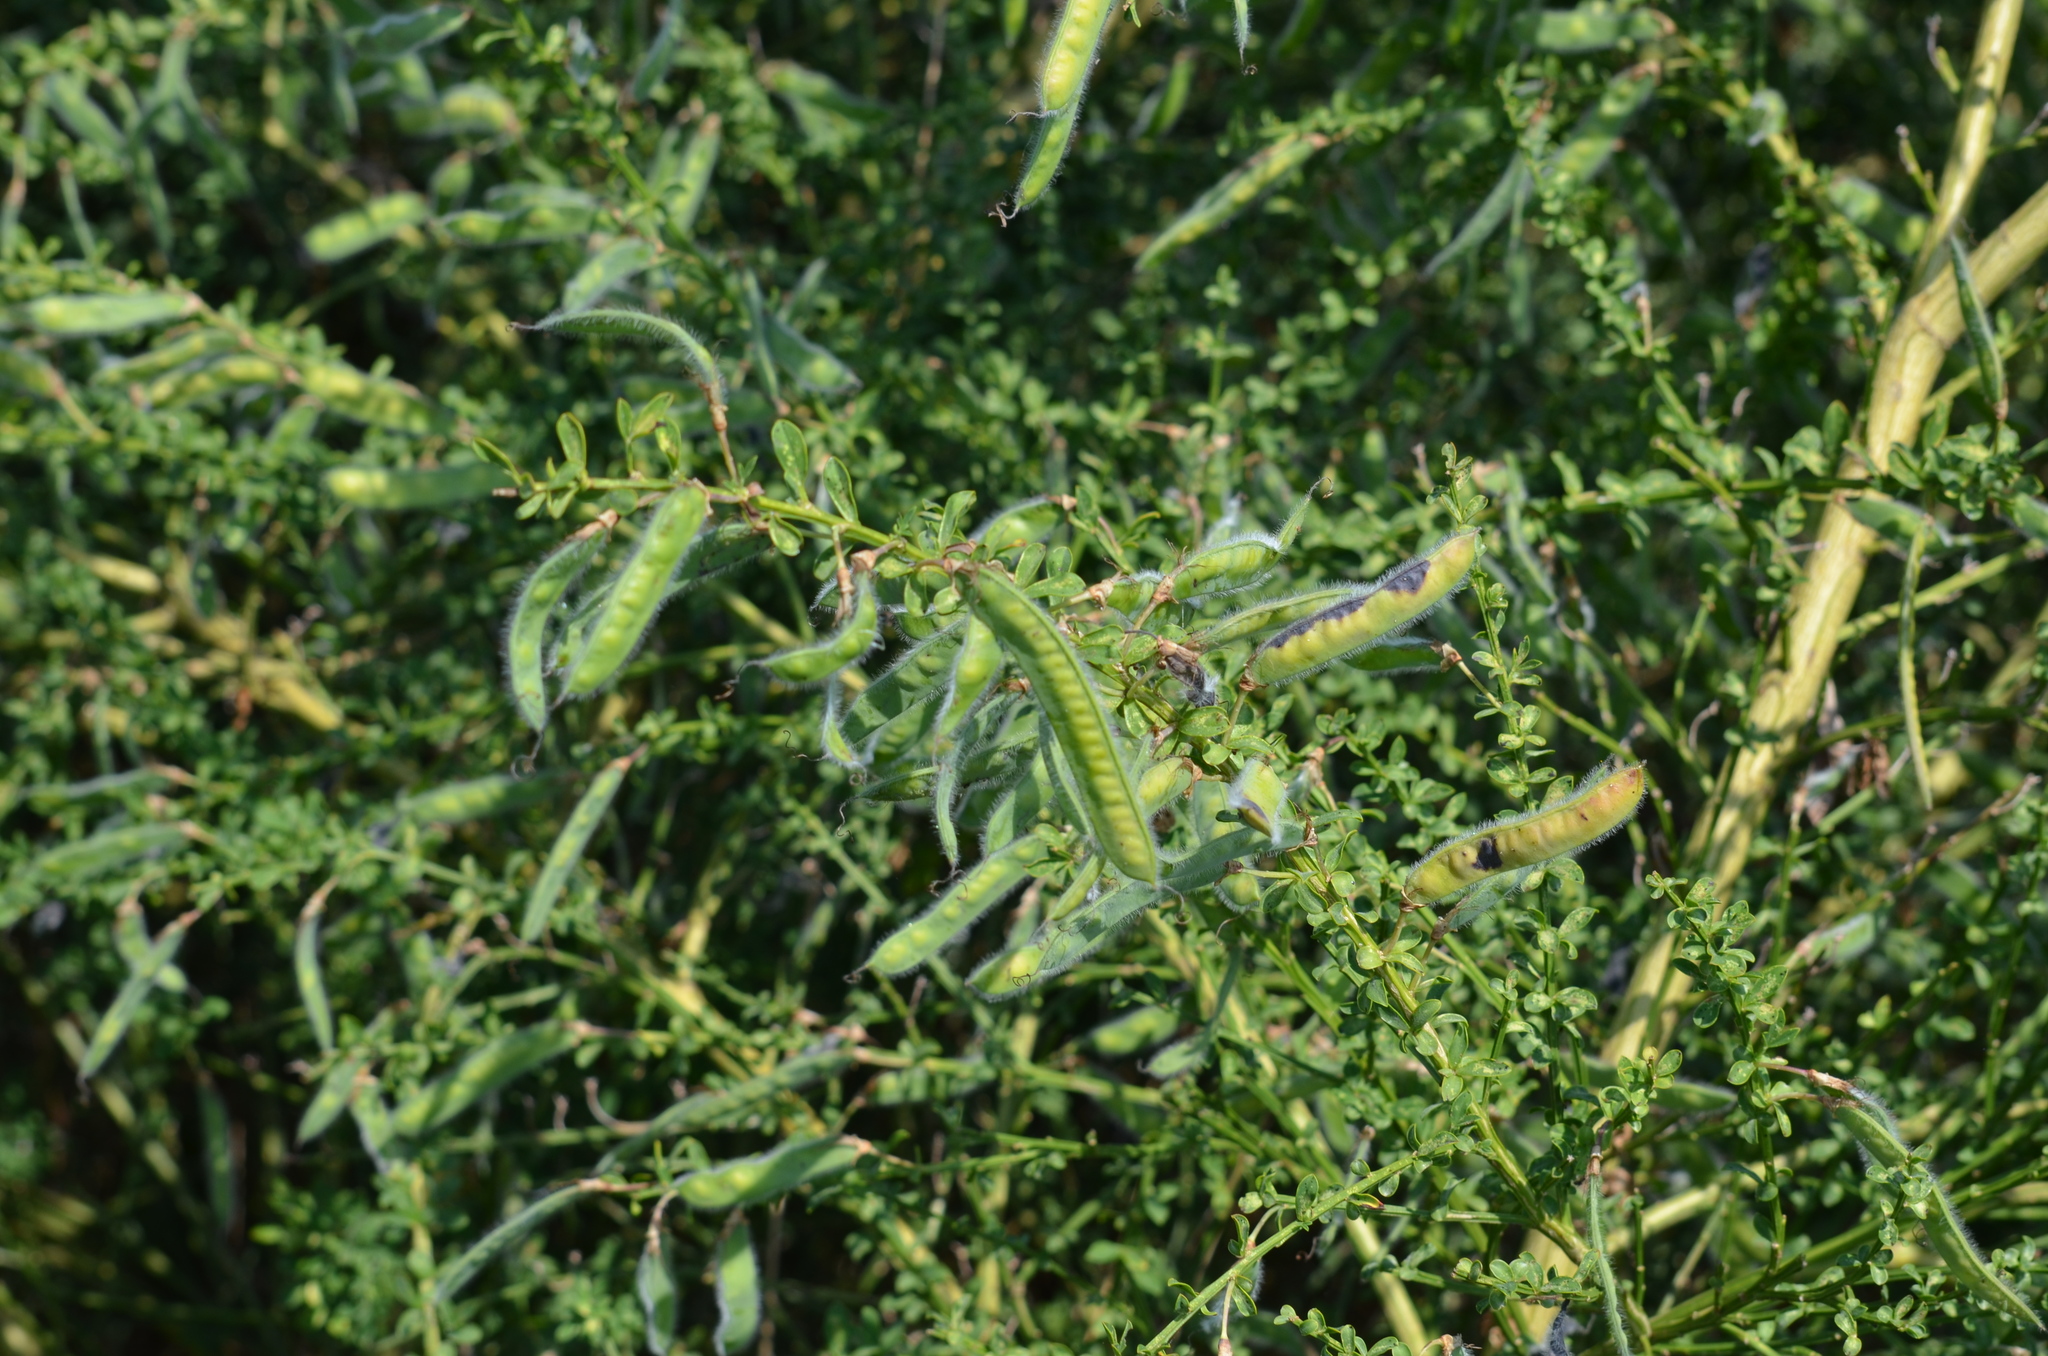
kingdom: Plantae
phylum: Tracheophyta
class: Magnoliopsida
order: Fabales
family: Fabaceae
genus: Cytisus
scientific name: Cytisus scoparius
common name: Scotch broom
